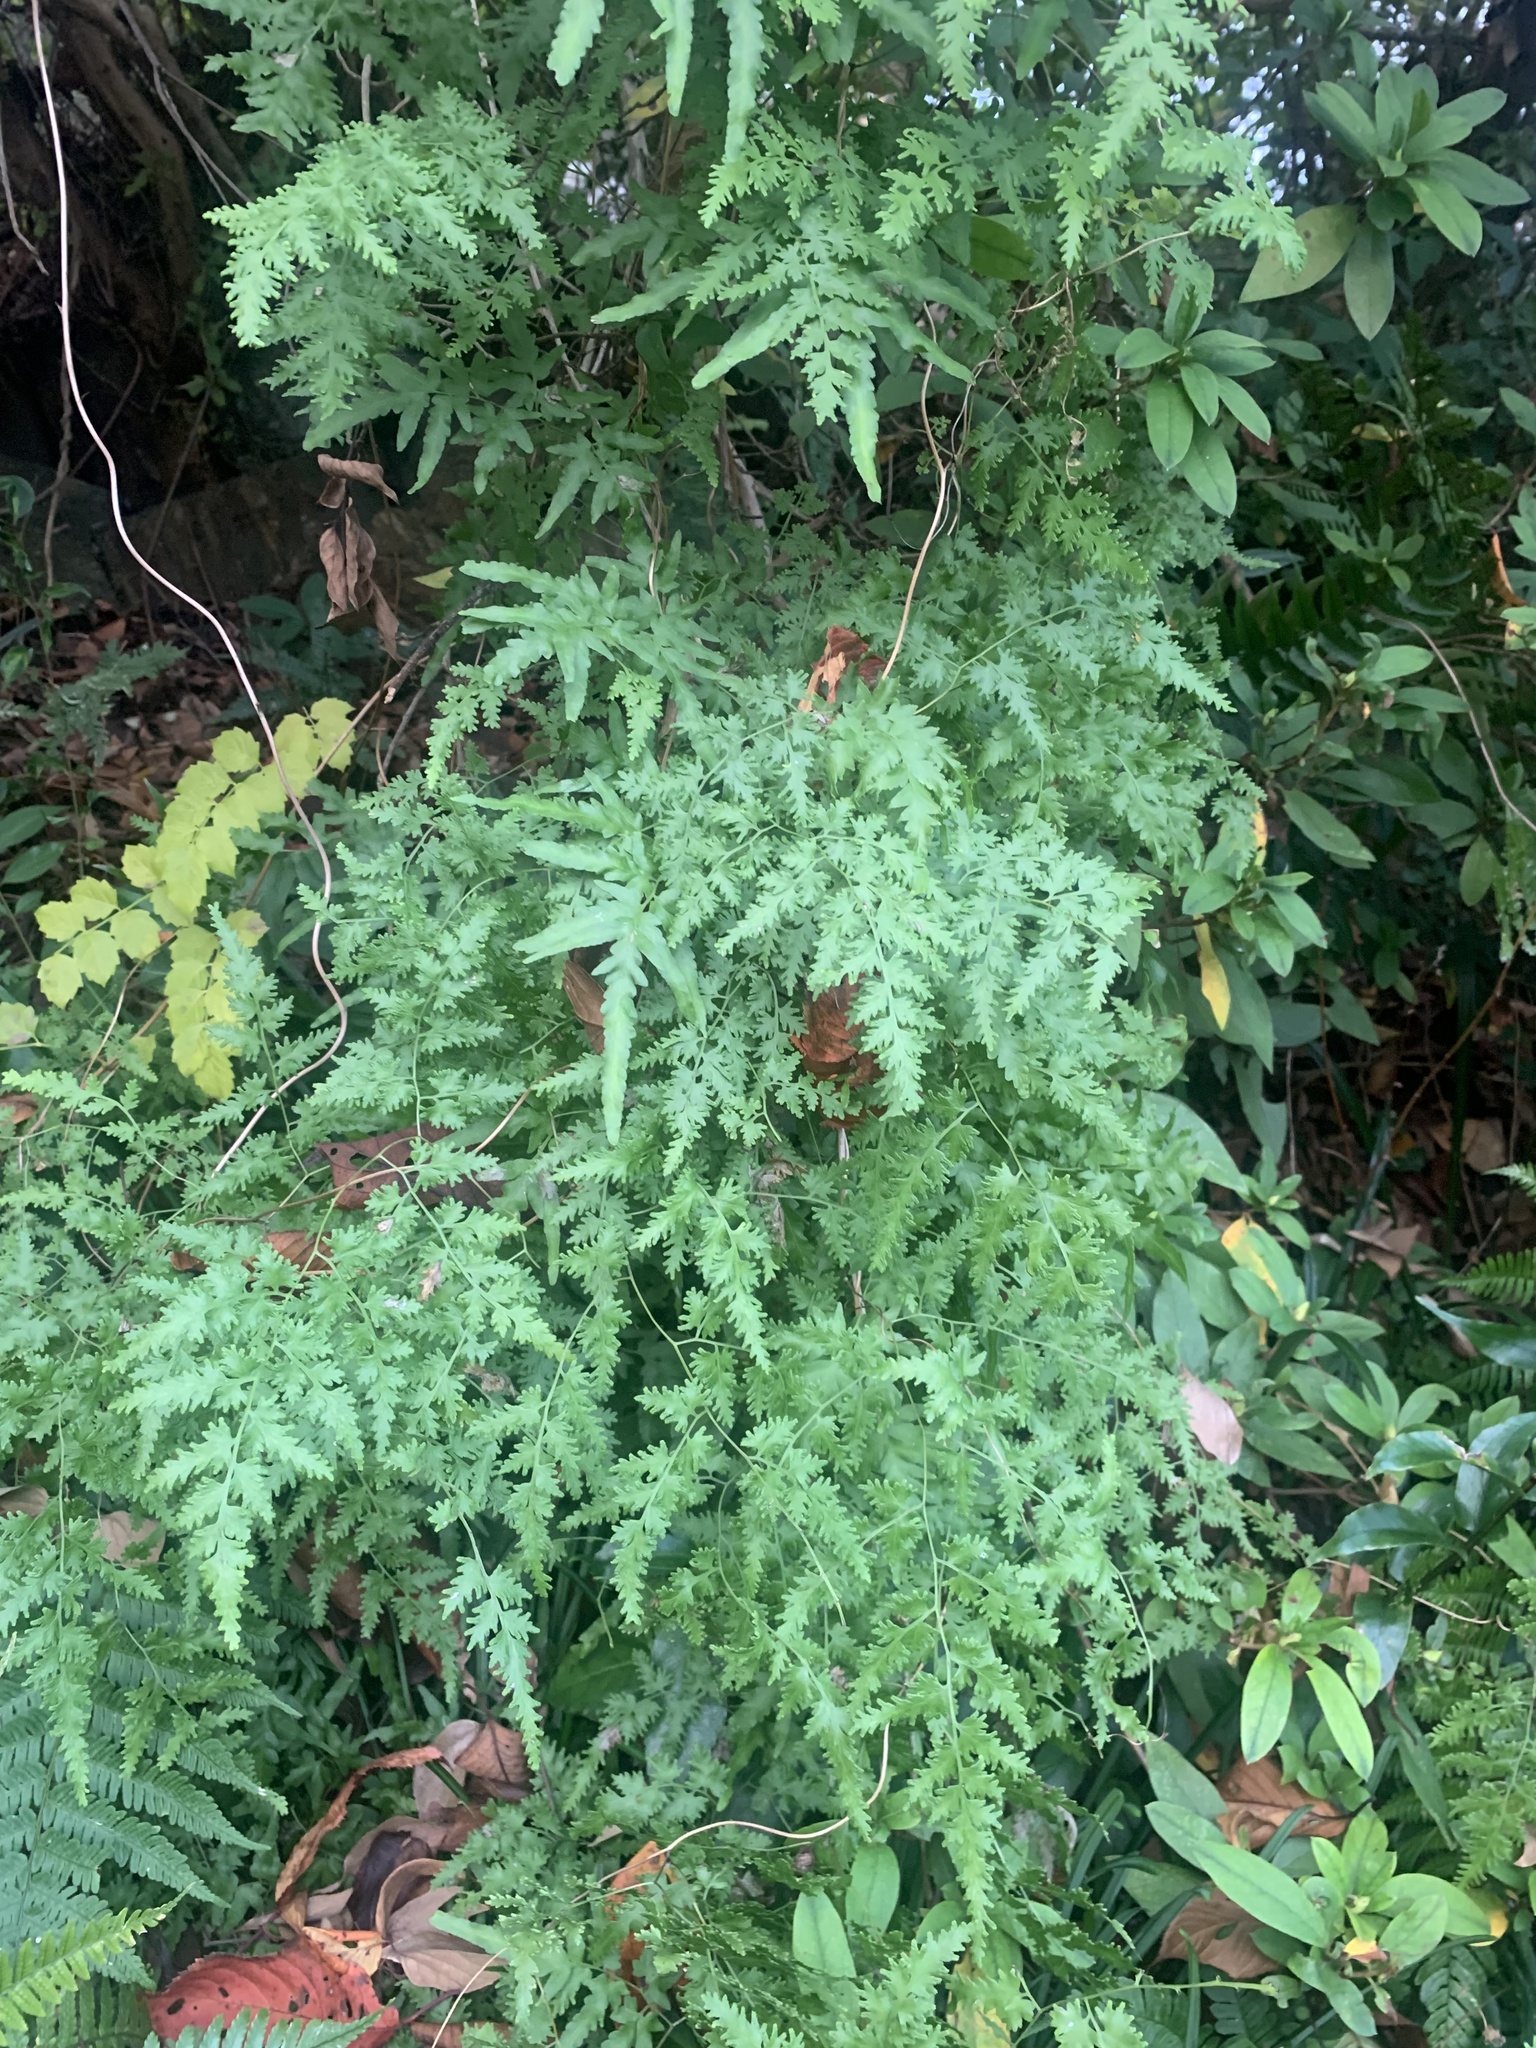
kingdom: Plantae
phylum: Tracheophyta
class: Polypodiopsida
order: Schizaeales
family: Lygodiaceae
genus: Lygodium
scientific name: Lygodium japonicum
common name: Japanese climbing fern
